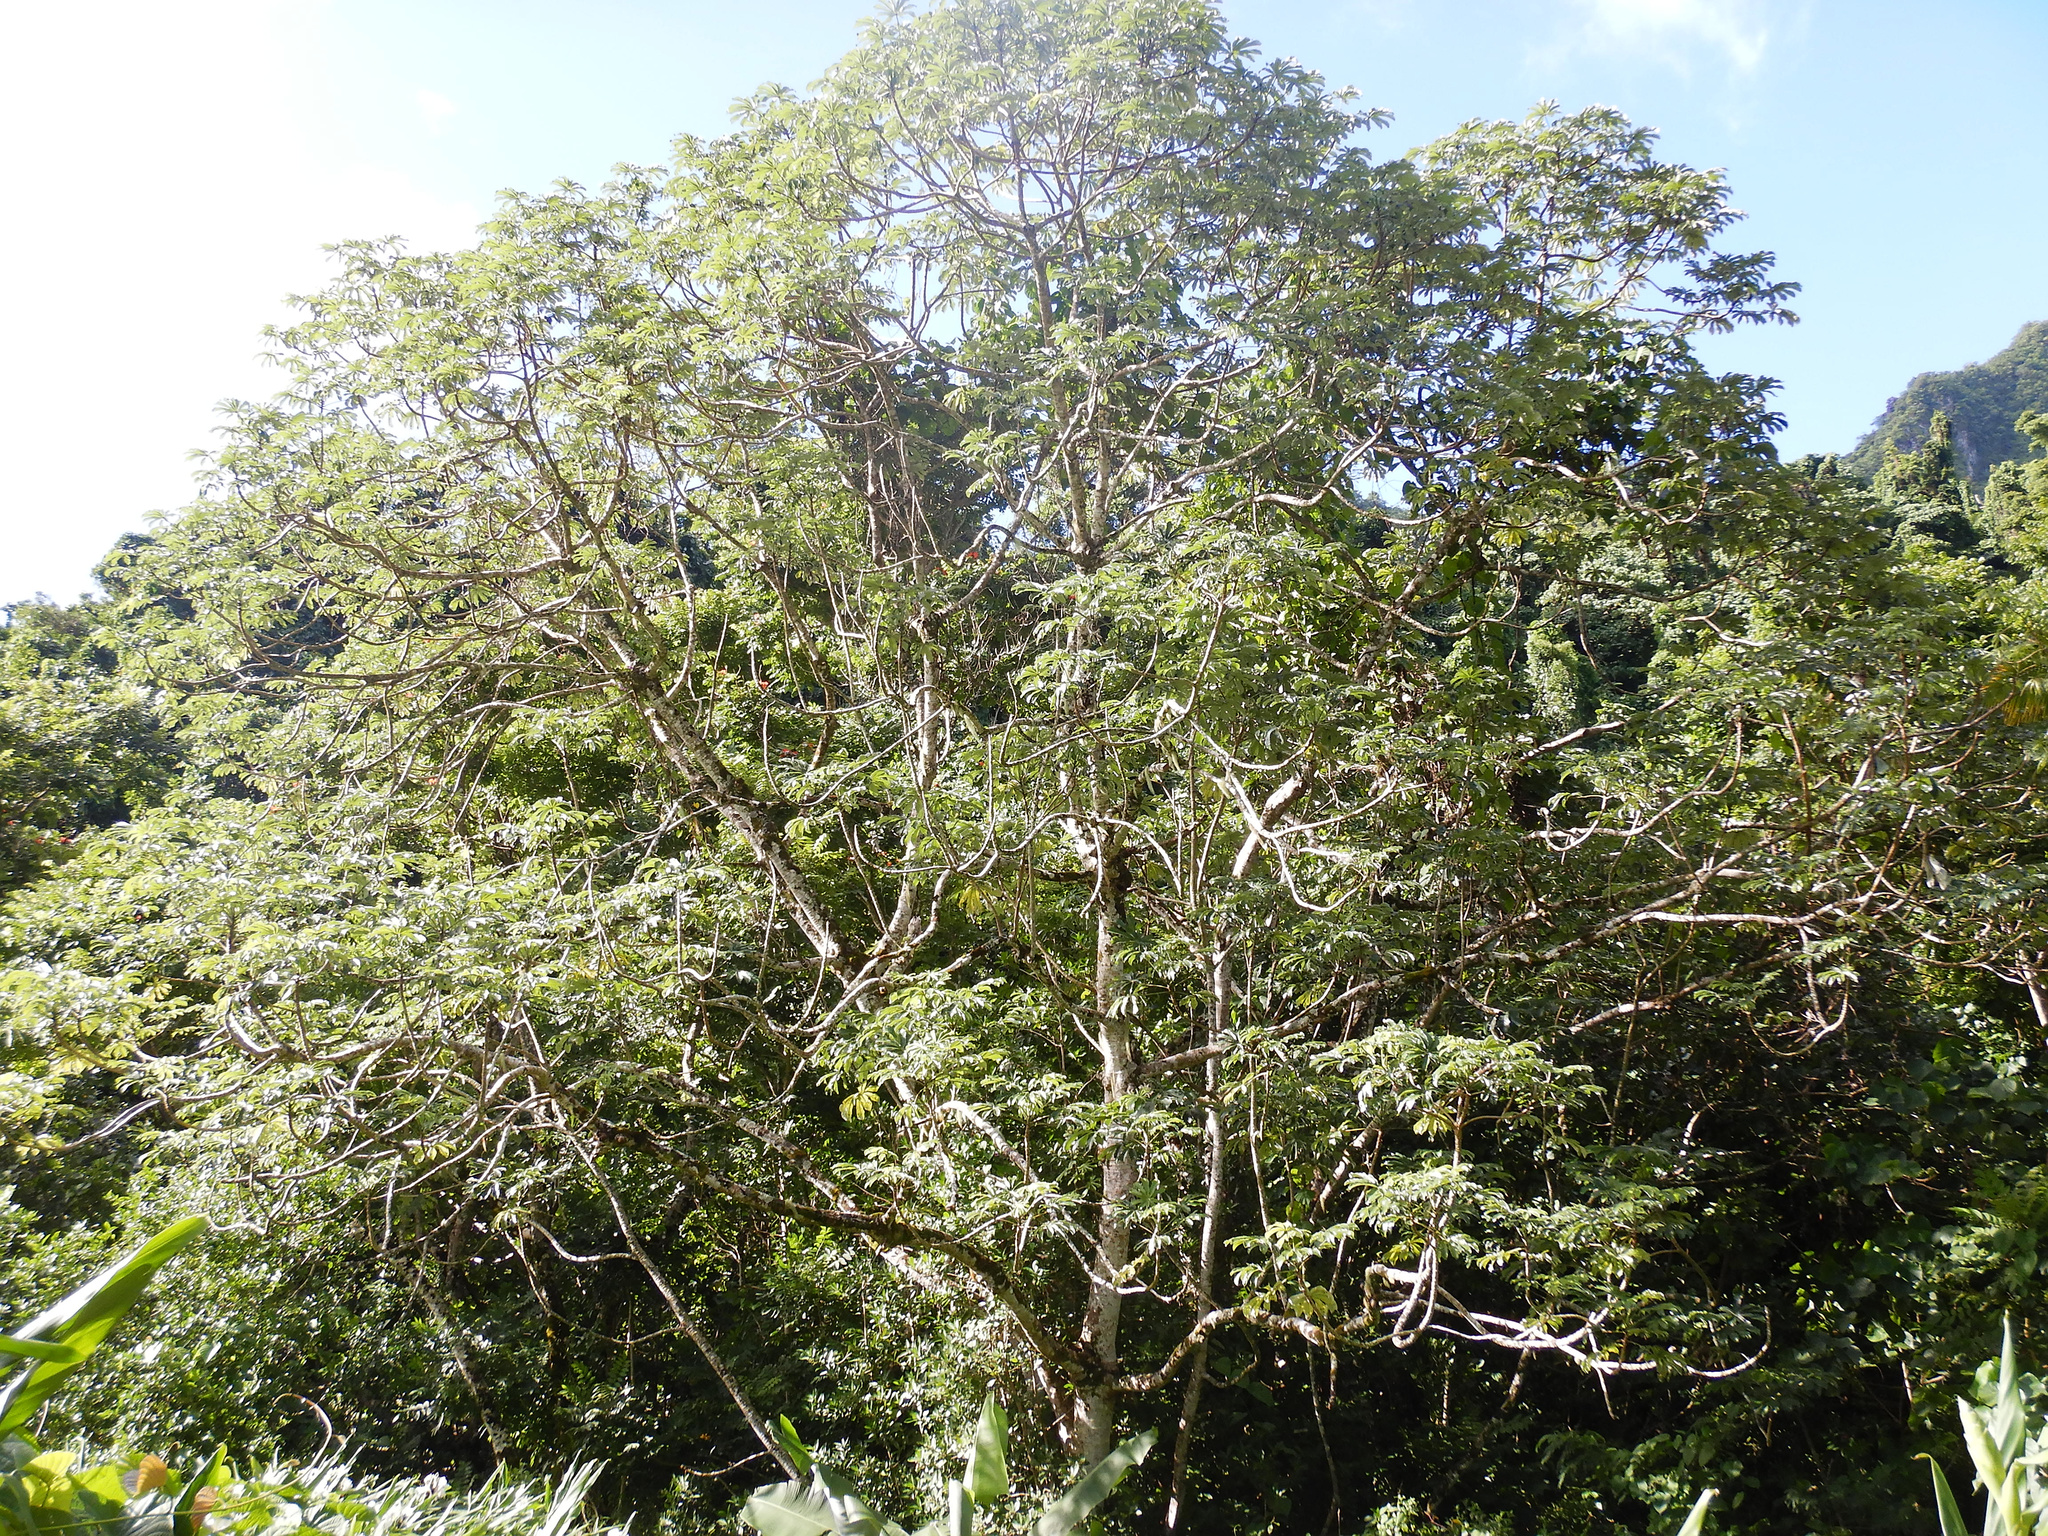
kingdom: Plantae
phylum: Tracheophyta
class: Magnoliopsida
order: Rosales
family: Urticaceae
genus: Cecropia
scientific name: Cecropia pachystachya
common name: Ambay pumpwood
